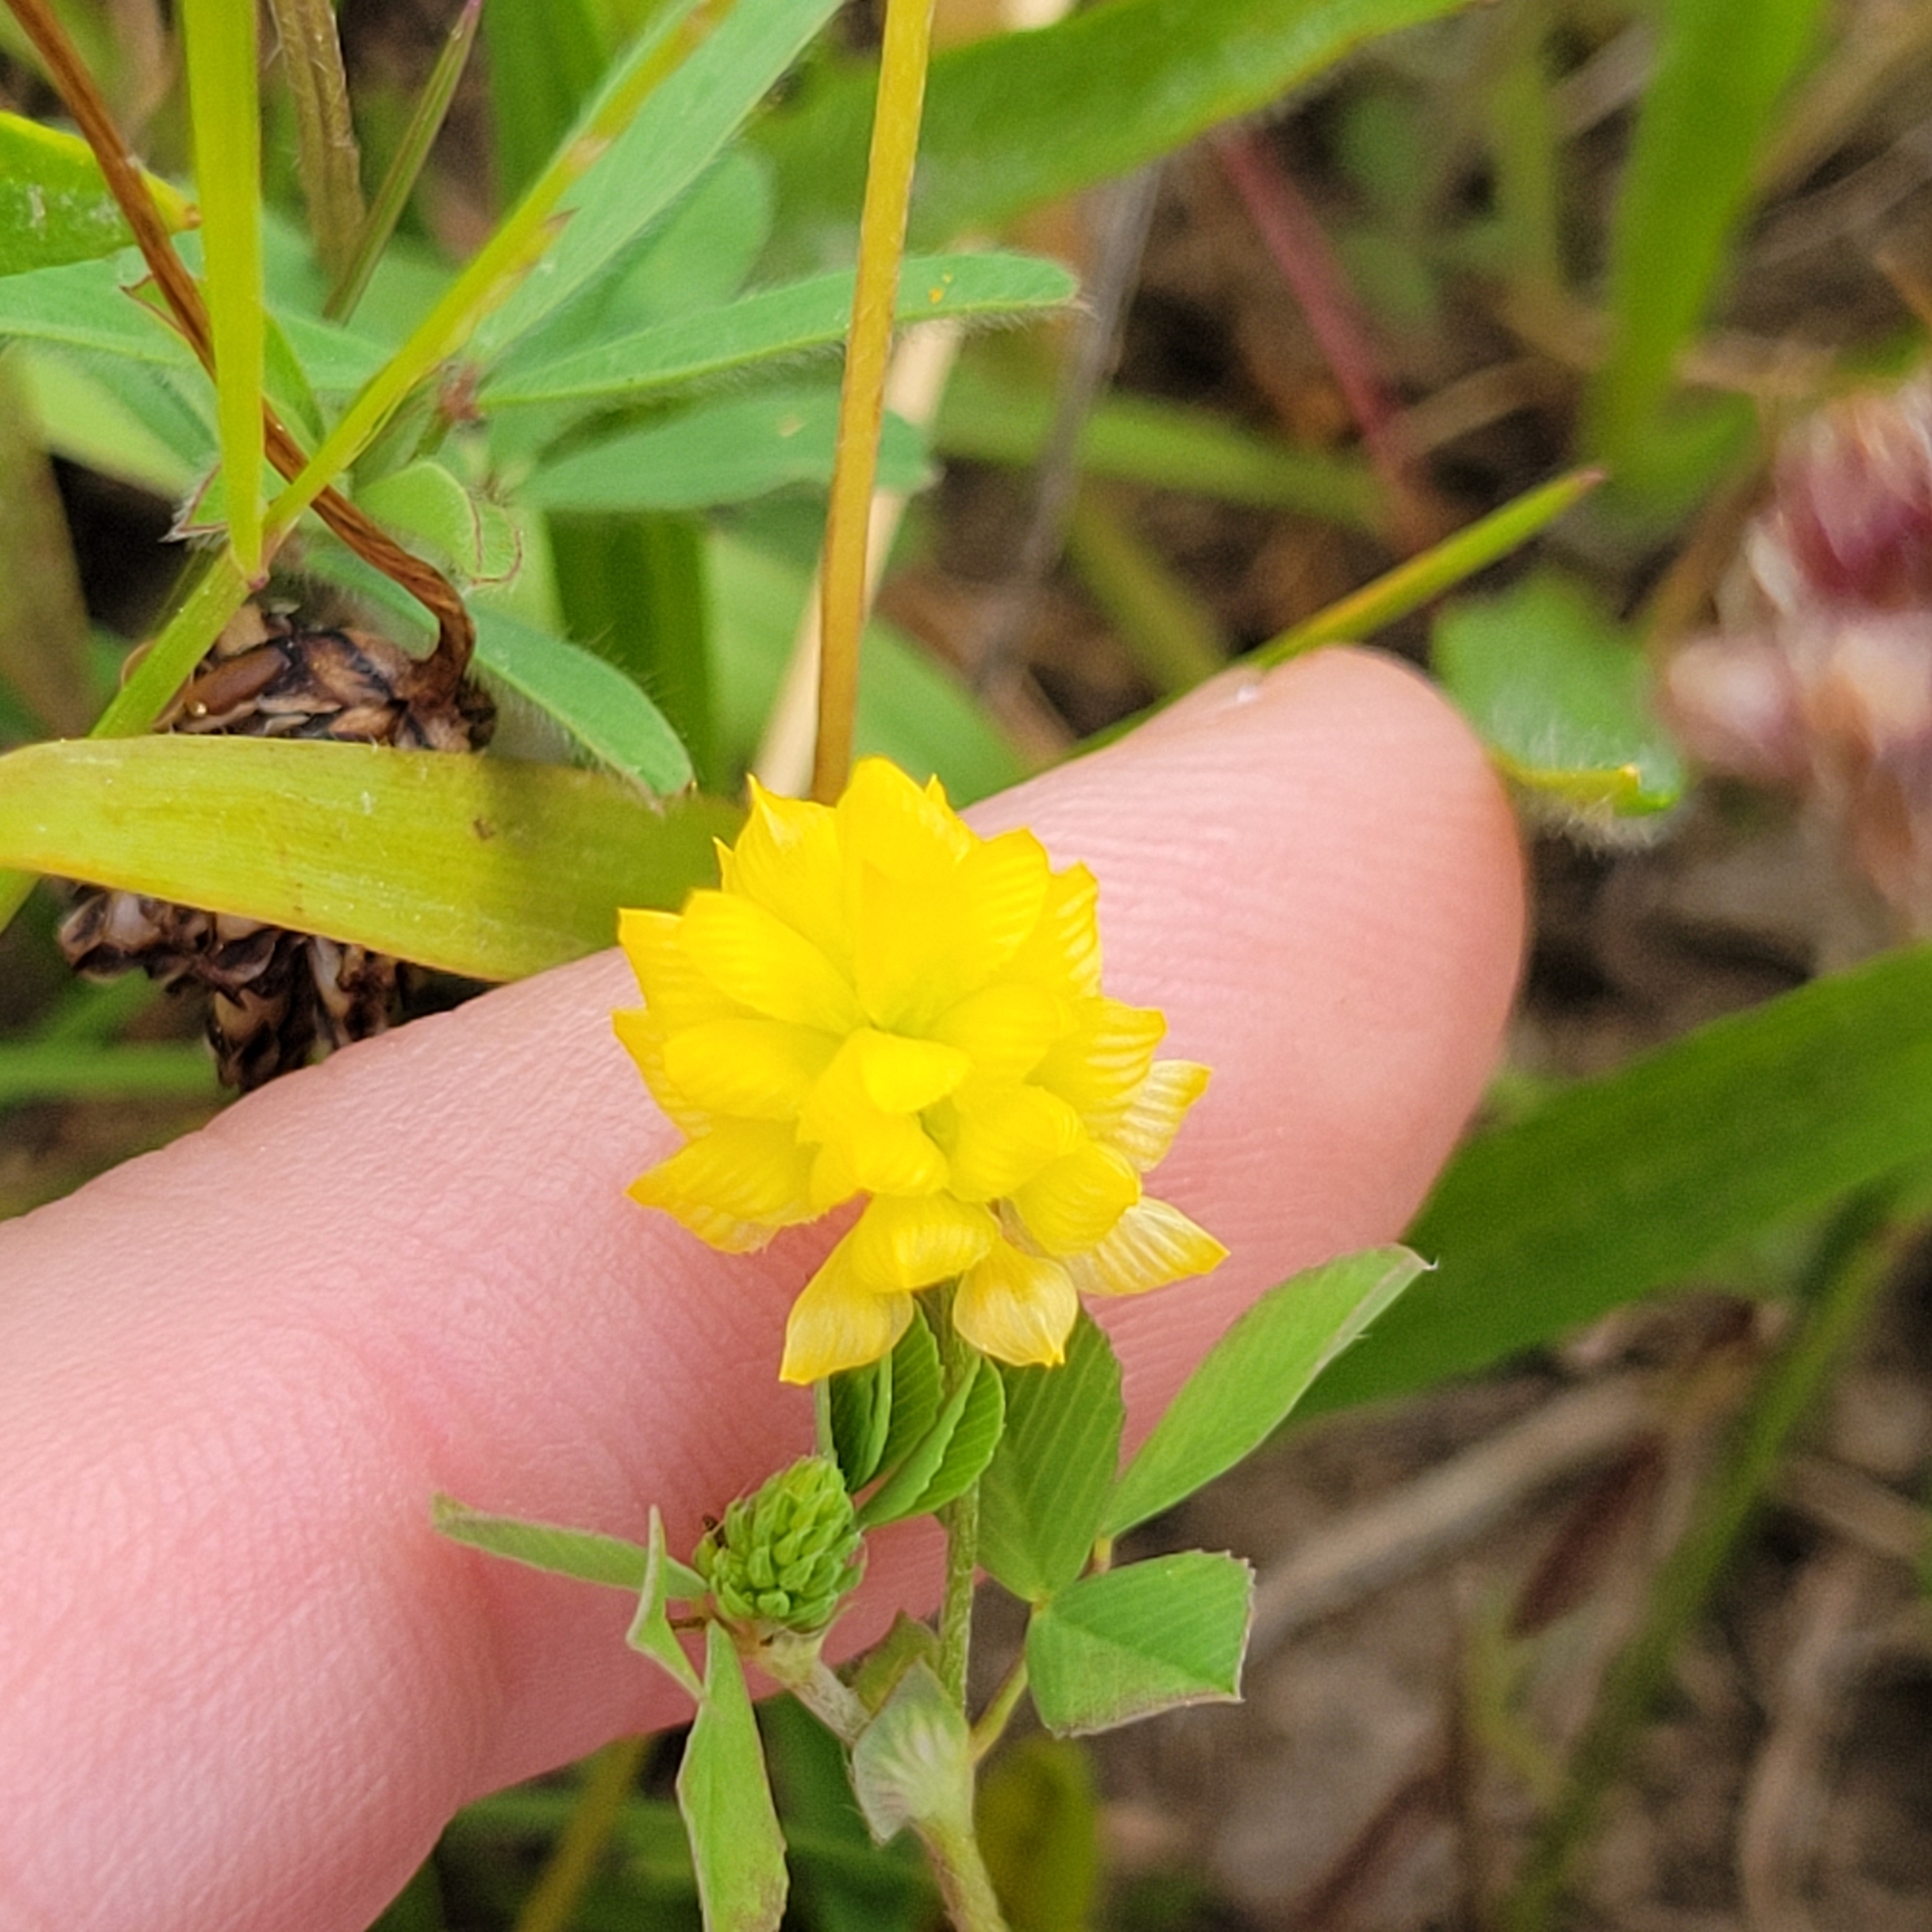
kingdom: Plantae
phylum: Tracheophyta
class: Magnoliopsida
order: Fabales
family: Fabaceae
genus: Trifolium
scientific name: Trifolium campestre
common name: Field clover
